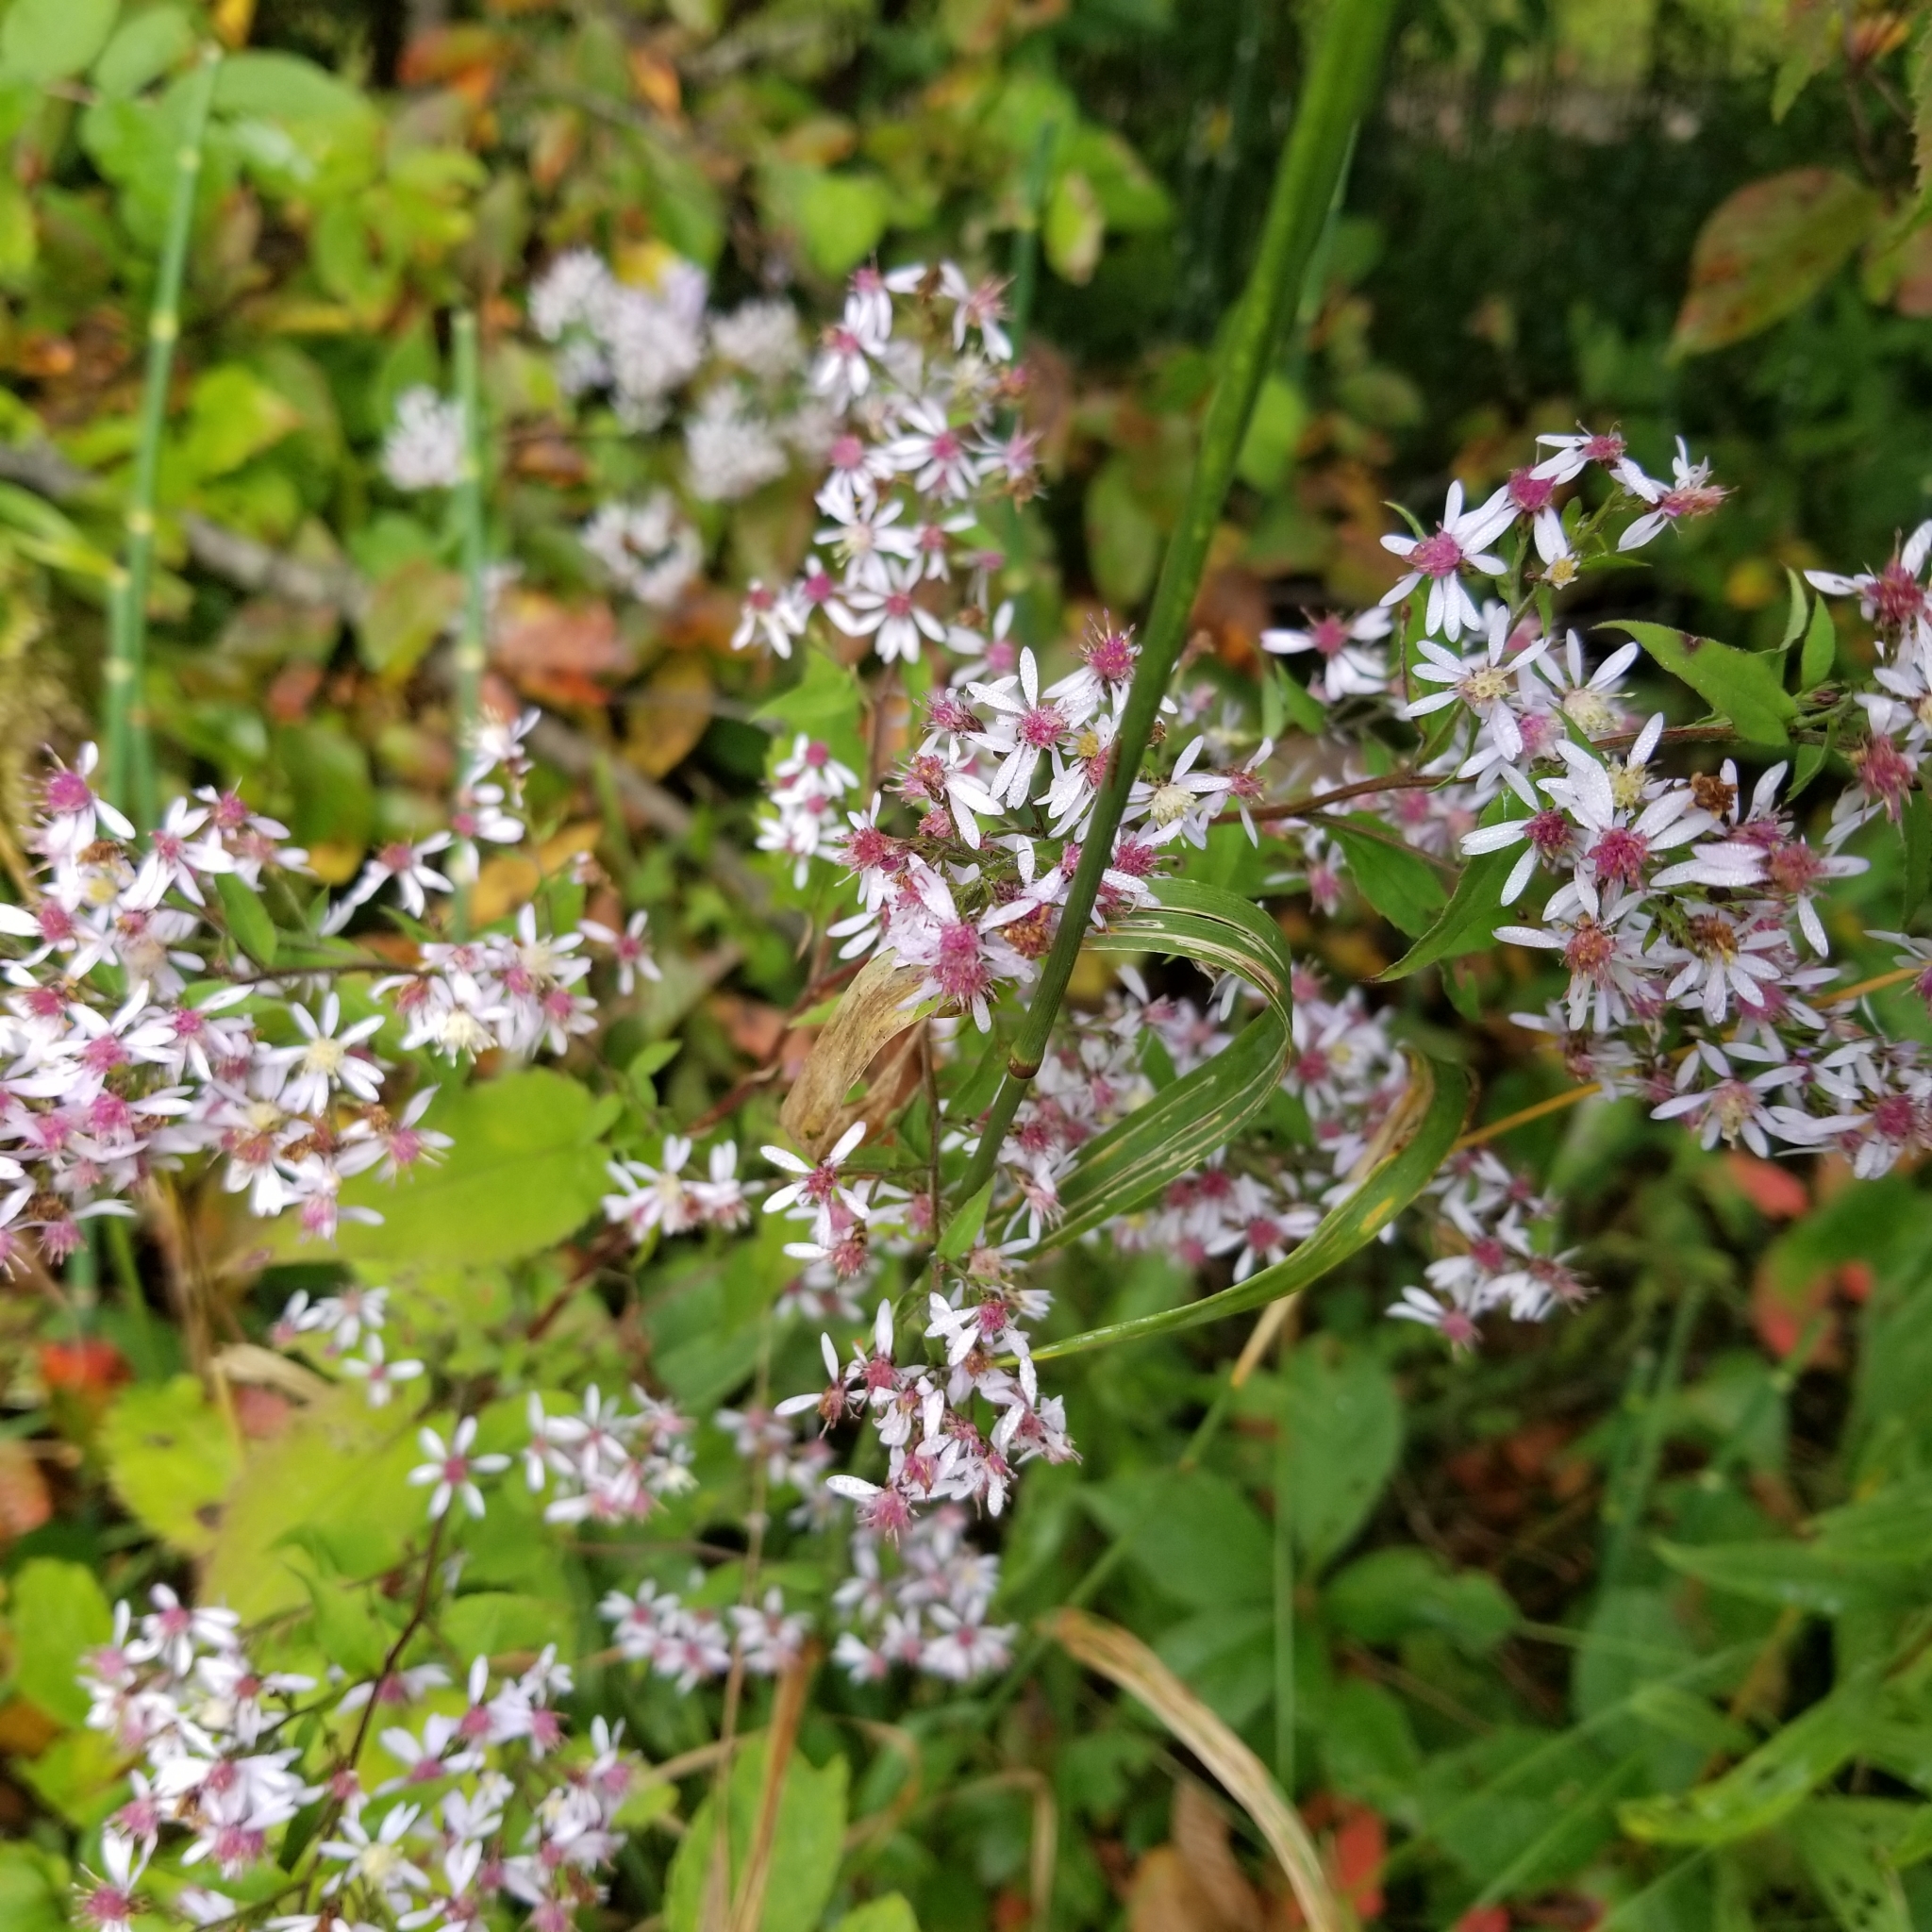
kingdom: Plantae
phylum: Tracheophyta
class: Magnoliopsida
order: Asterales
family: Asteraceae
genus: Symphyotrichum
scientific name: Symphyotrichum cordifolium
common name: Beeweed
